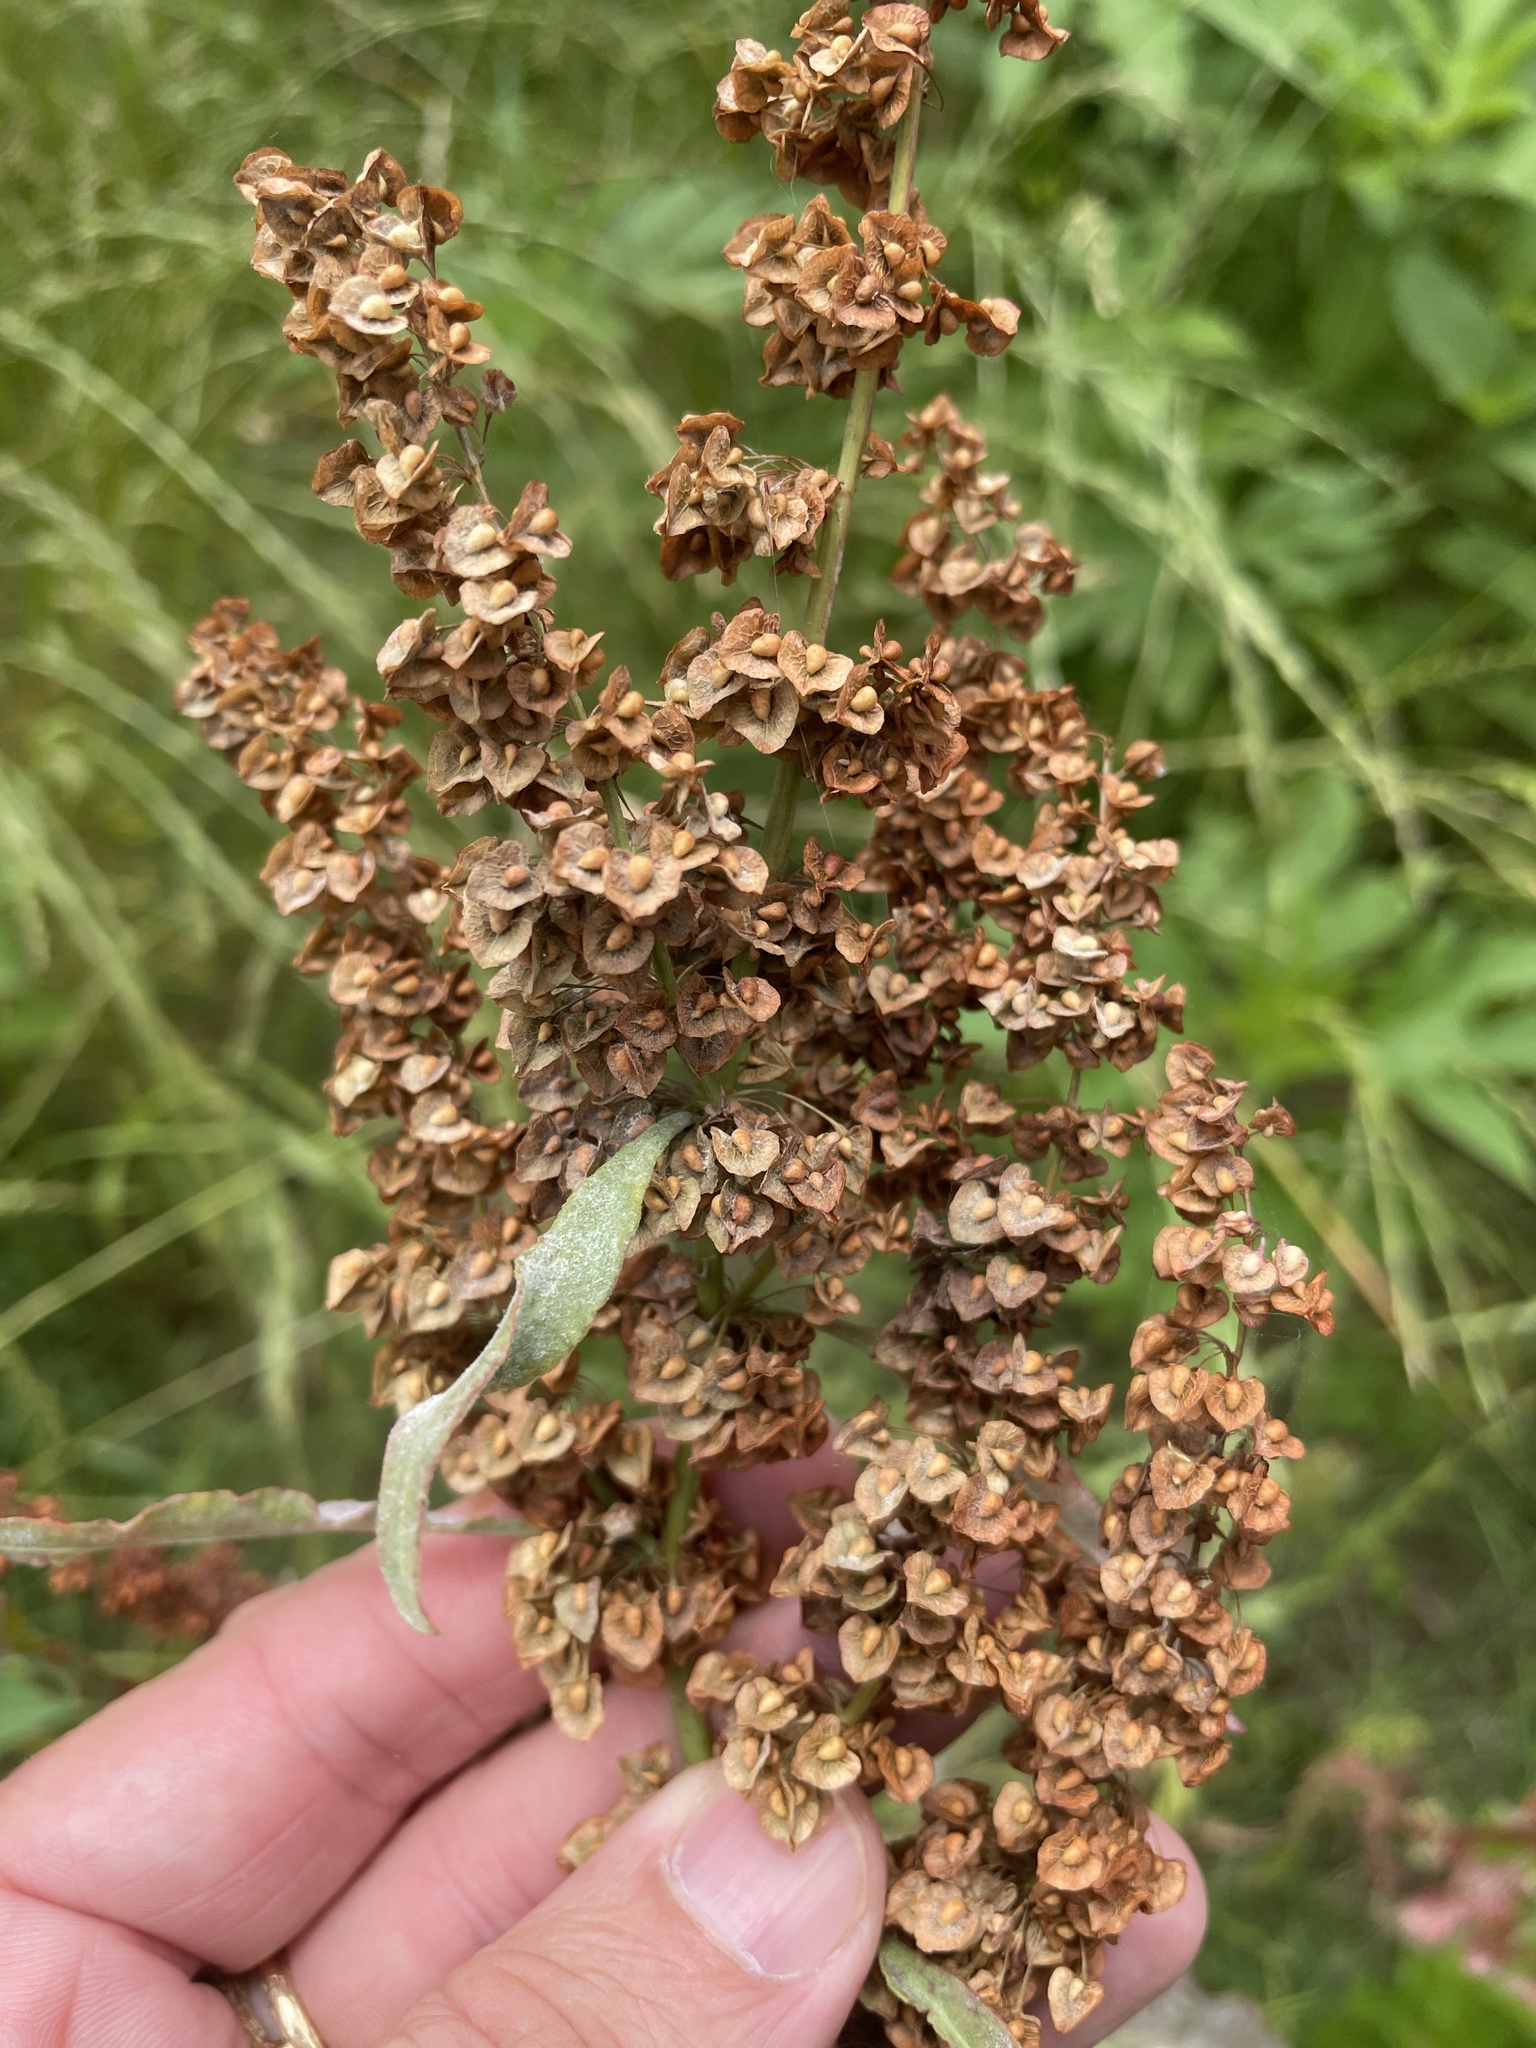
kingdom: Plantae
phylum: Tracheophyta
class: Magnoliopsida
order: Caryophyllales
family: Polygonaceae
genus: Rumex
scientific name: Rumex crispus
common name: Curled dock
